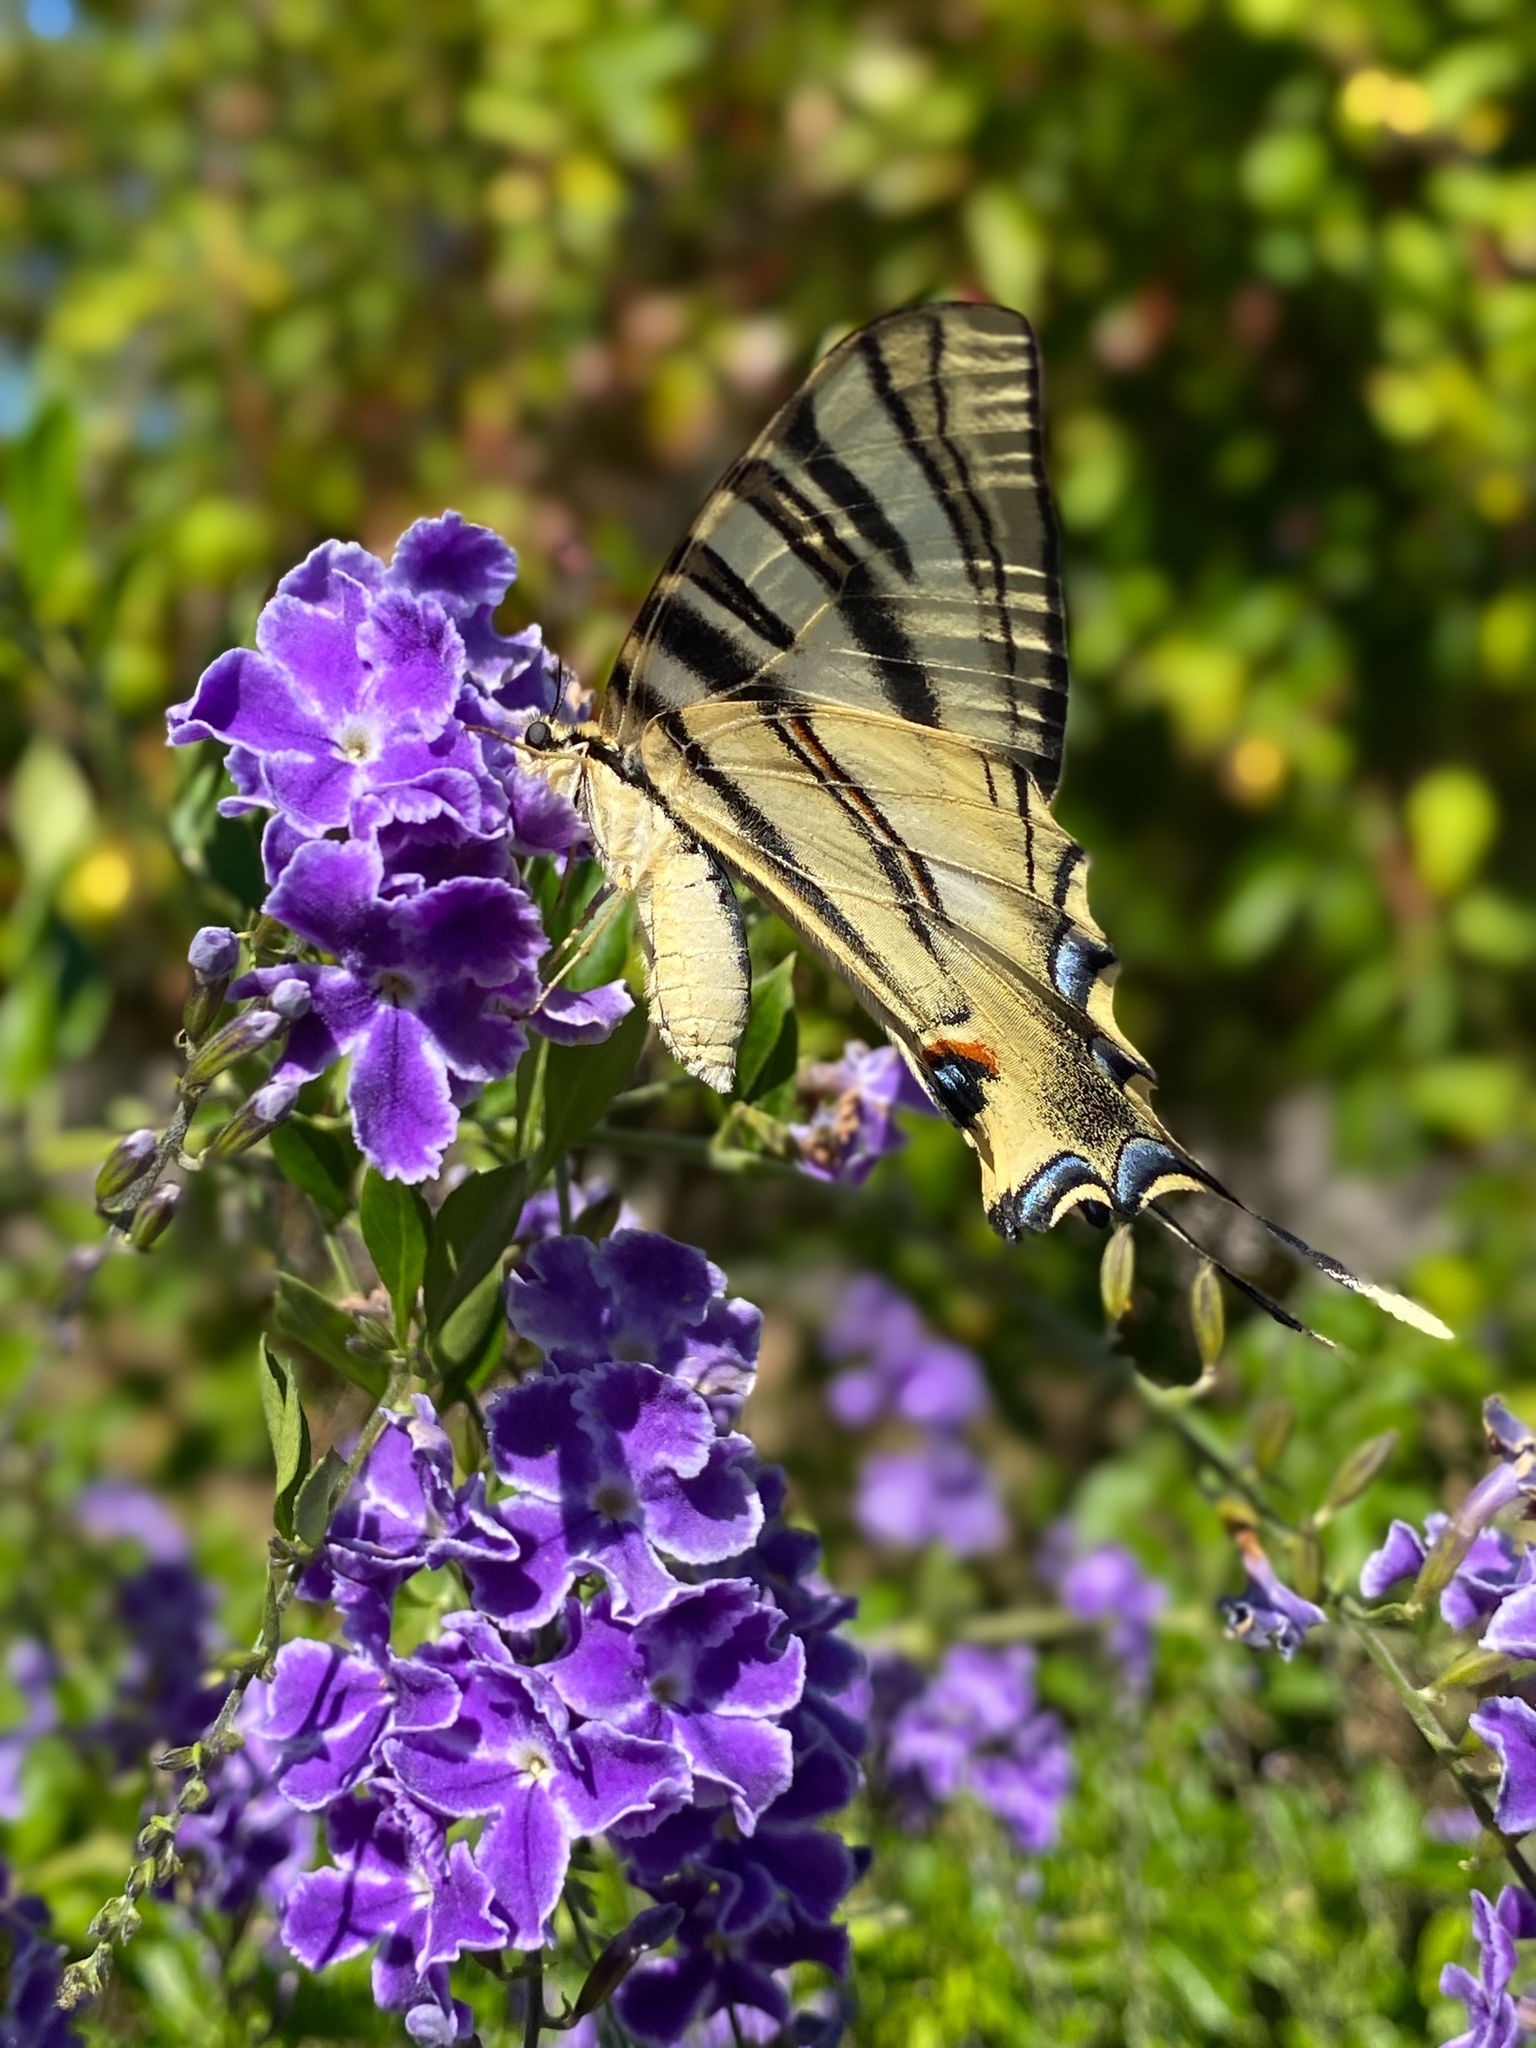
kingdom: Animalia
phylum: Arthropoda
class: Insecta
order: Lepidoptera
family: Papilionidae
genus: Iphiclides
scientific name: Iphiclides feisthamelii
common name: Iberian scarce swallowtail
